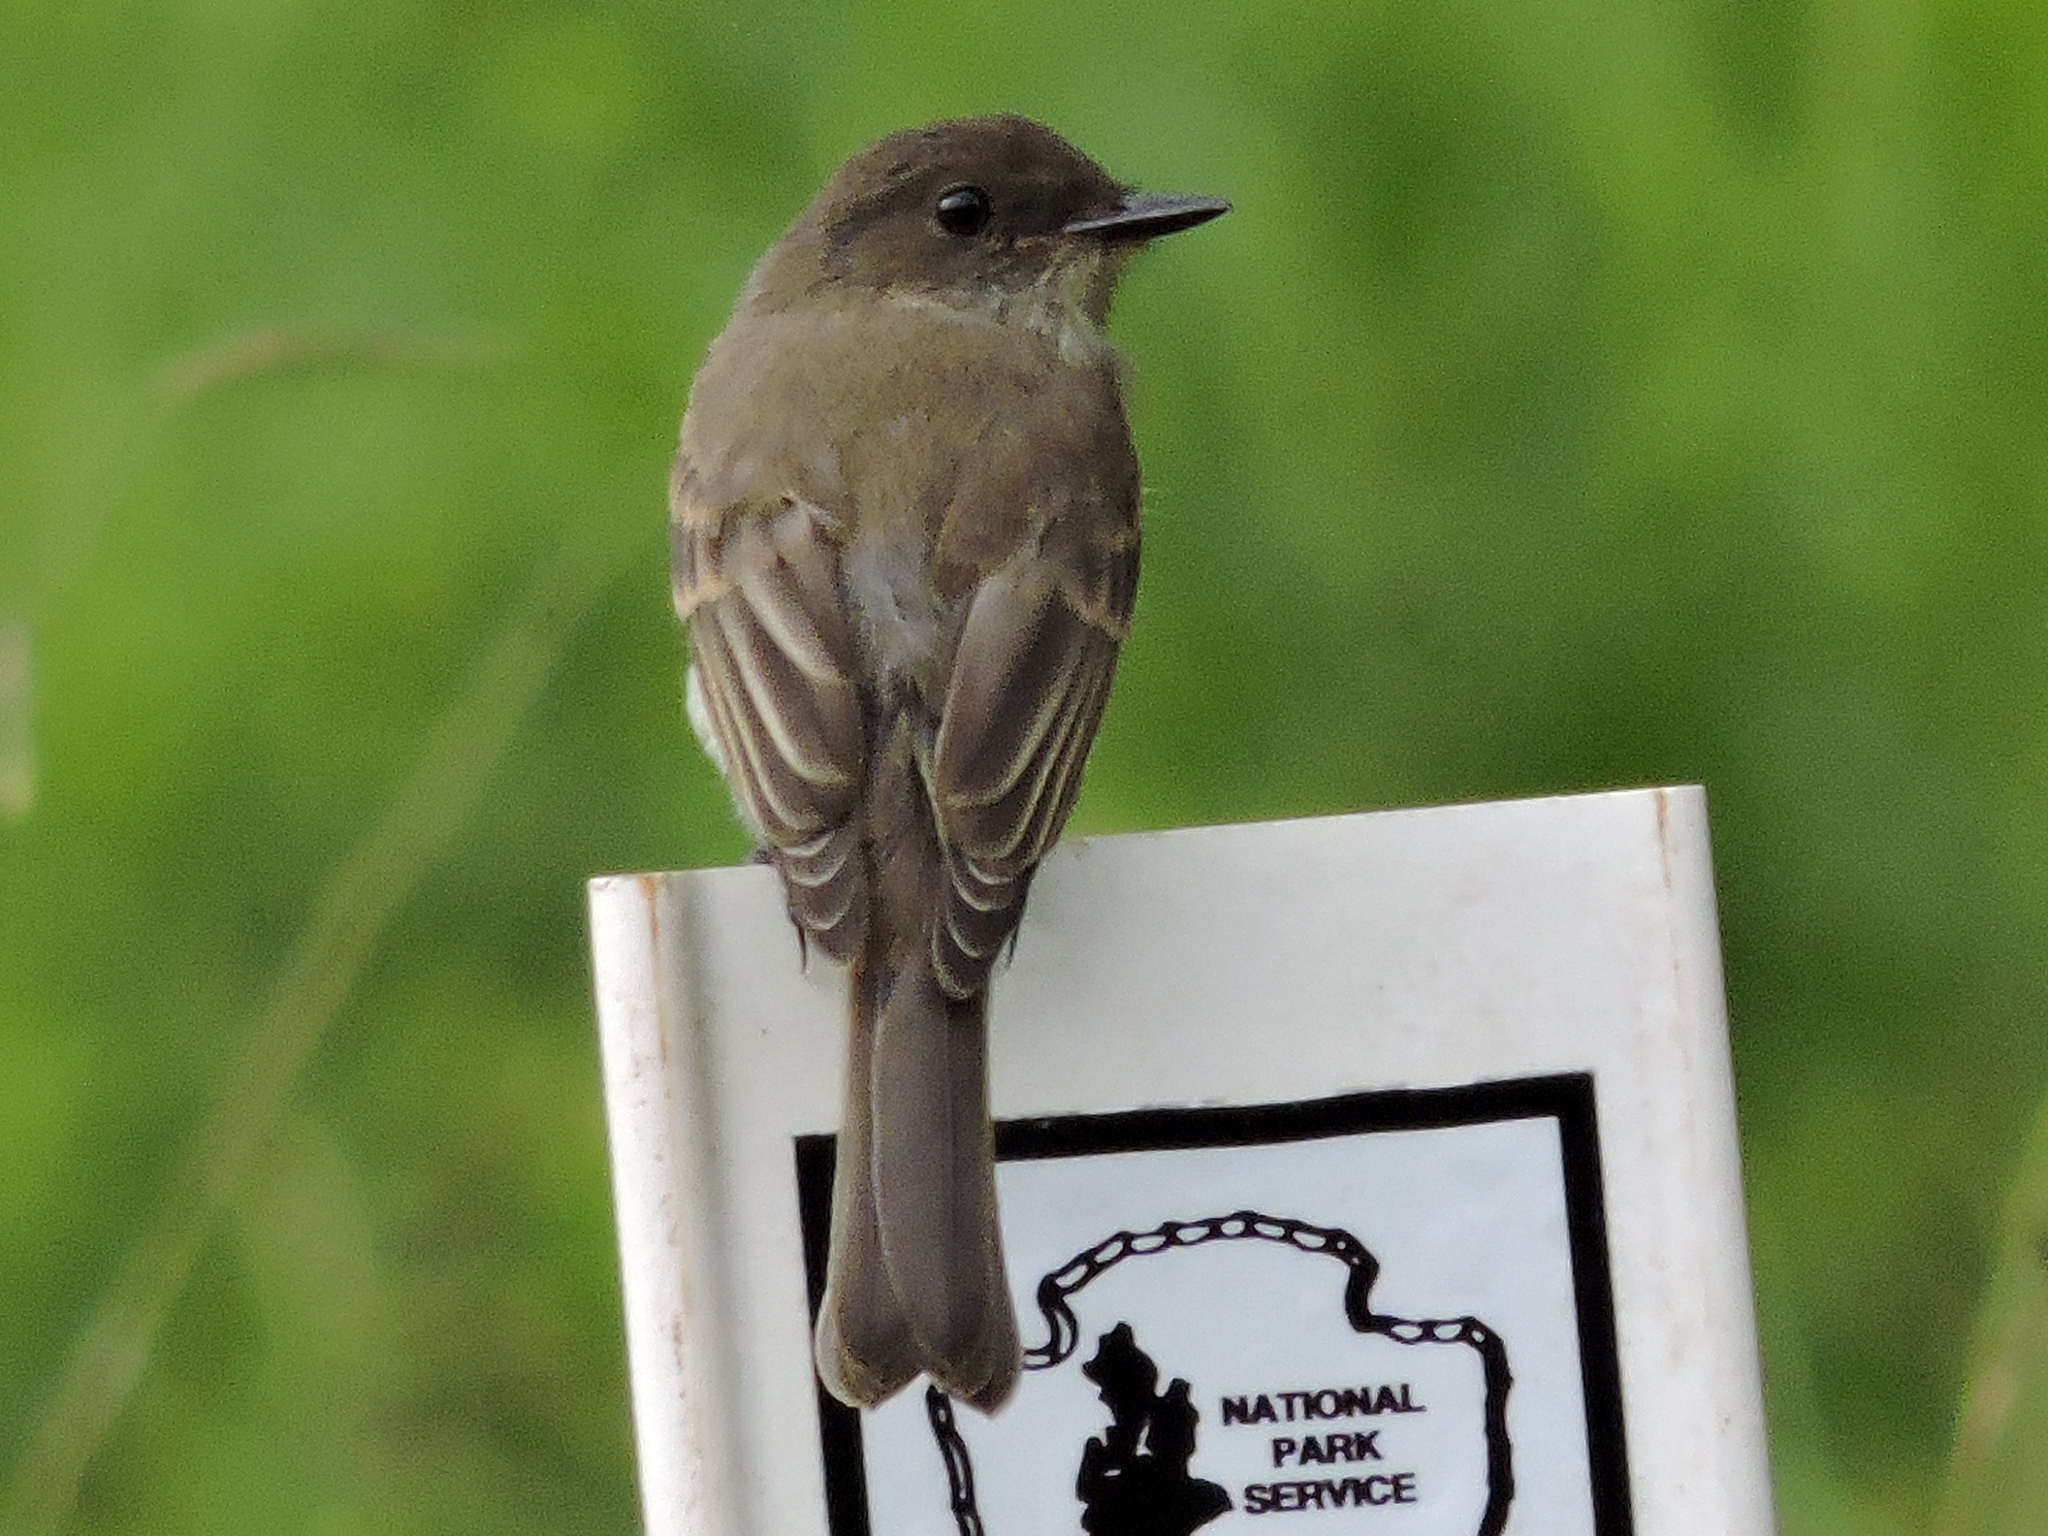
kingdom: Animalia
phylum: Chordata
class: Aves
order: Passeriformes
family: Tyrannidae
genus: Sayornis
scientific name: Sayornis phoebe
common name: Eastern phoebe
